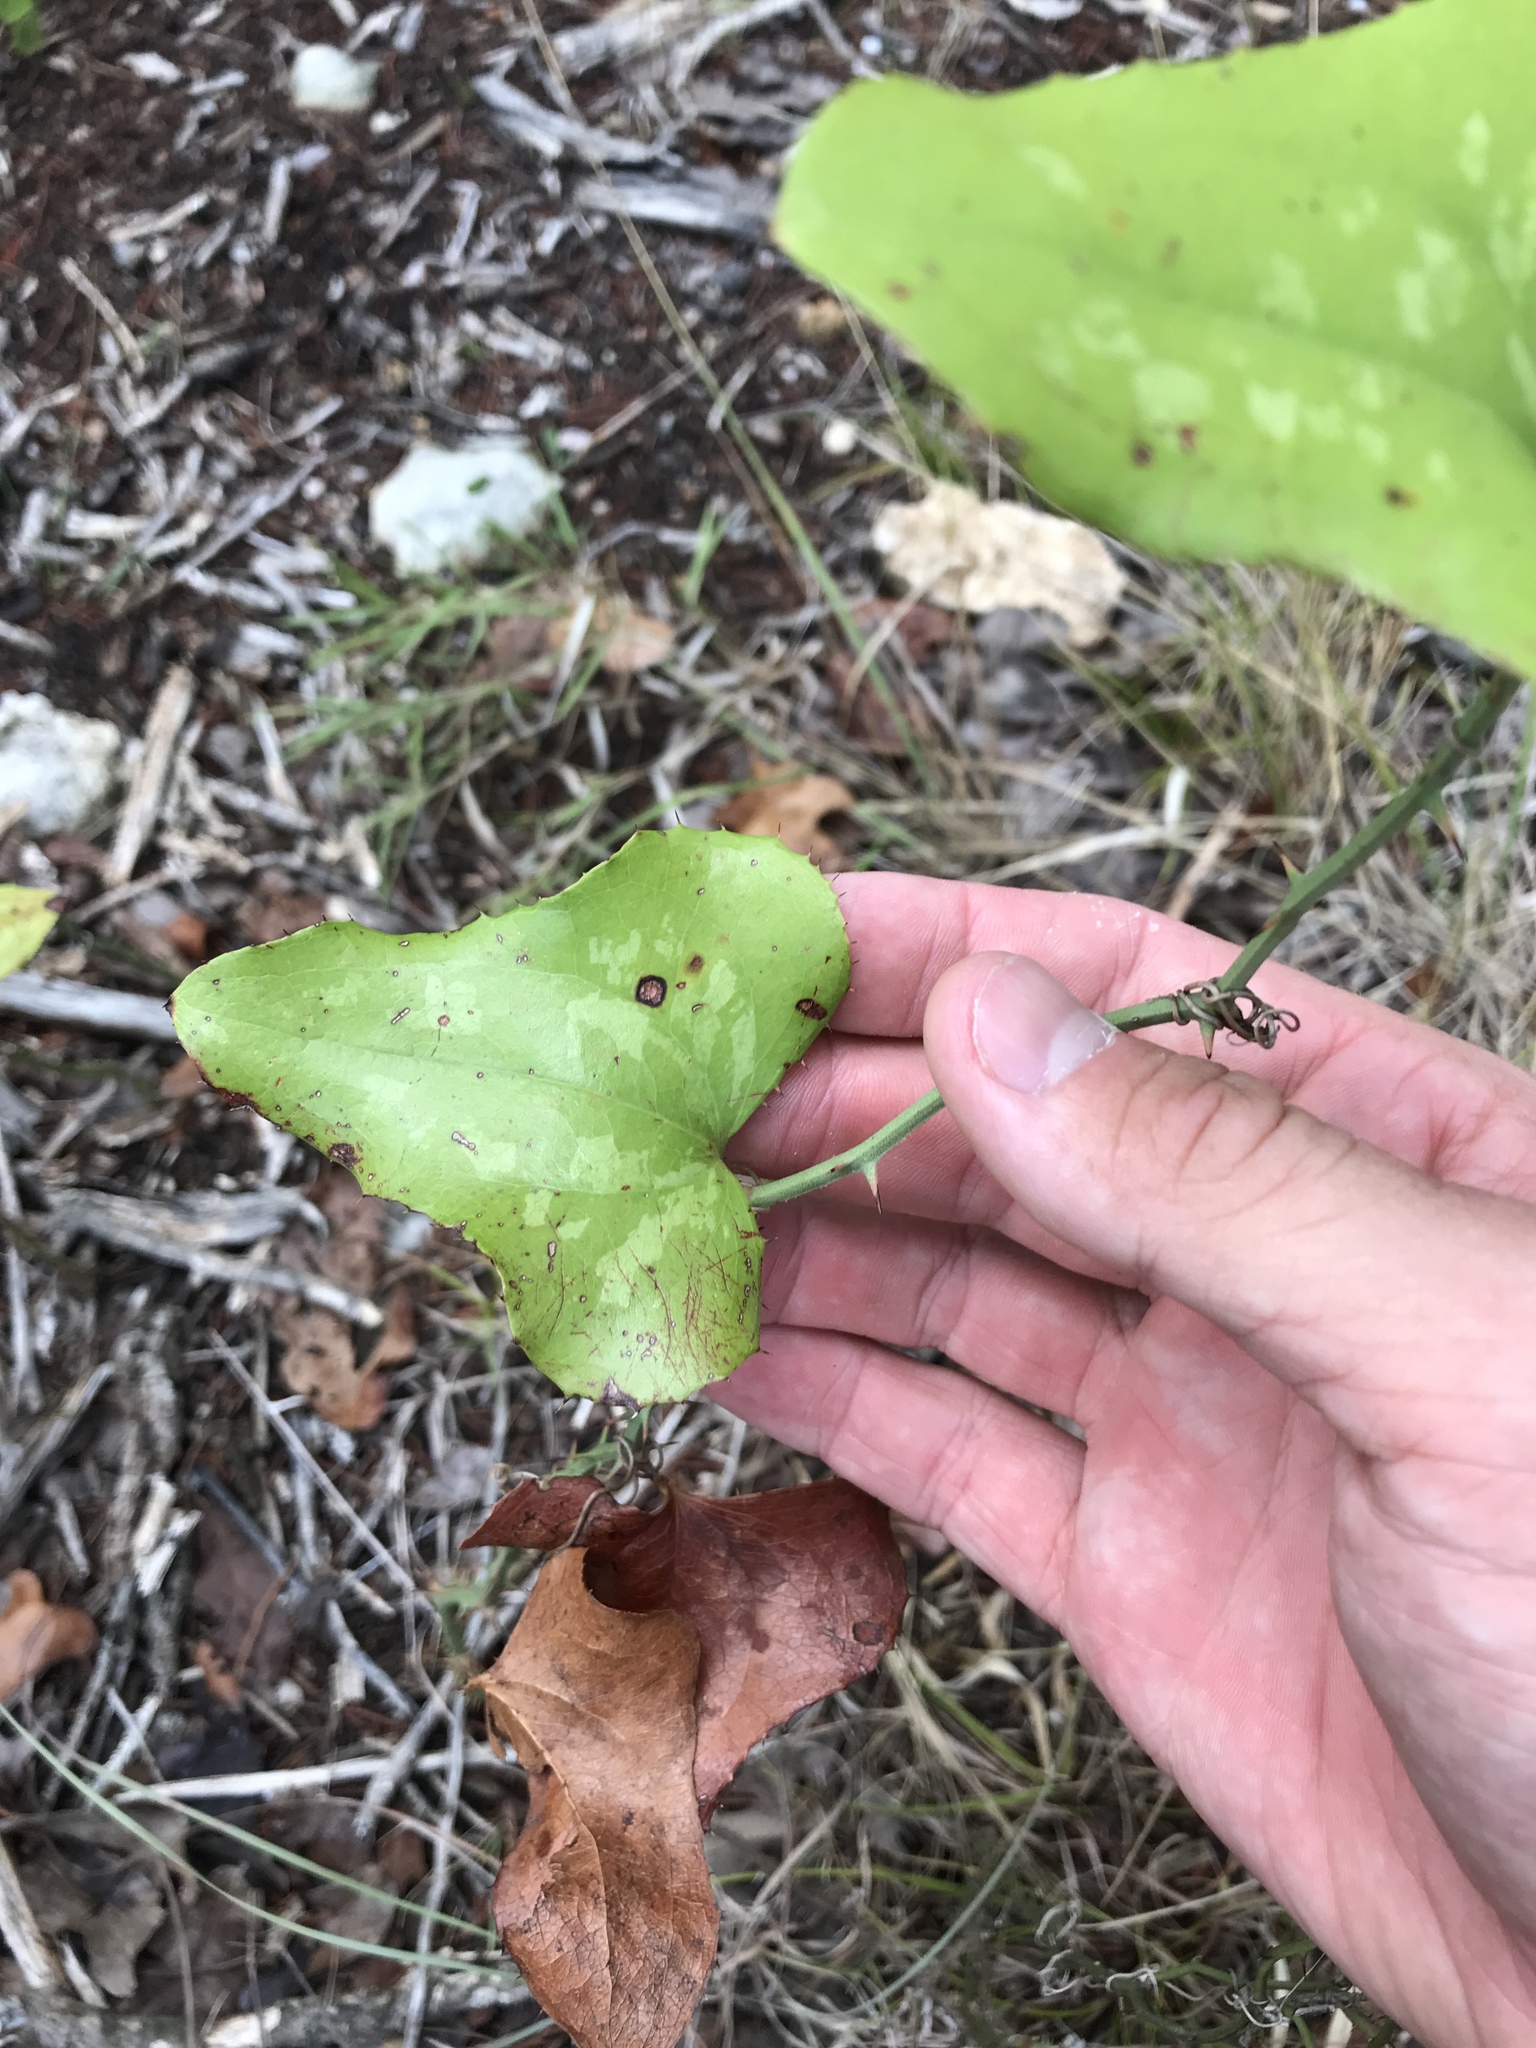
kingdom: Plantae
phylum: Tracheophyta
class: Liliopsida
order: Liliales
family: Smilacaceae
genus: Smilax
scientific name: Smilax bona-nox
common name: Catbrier
